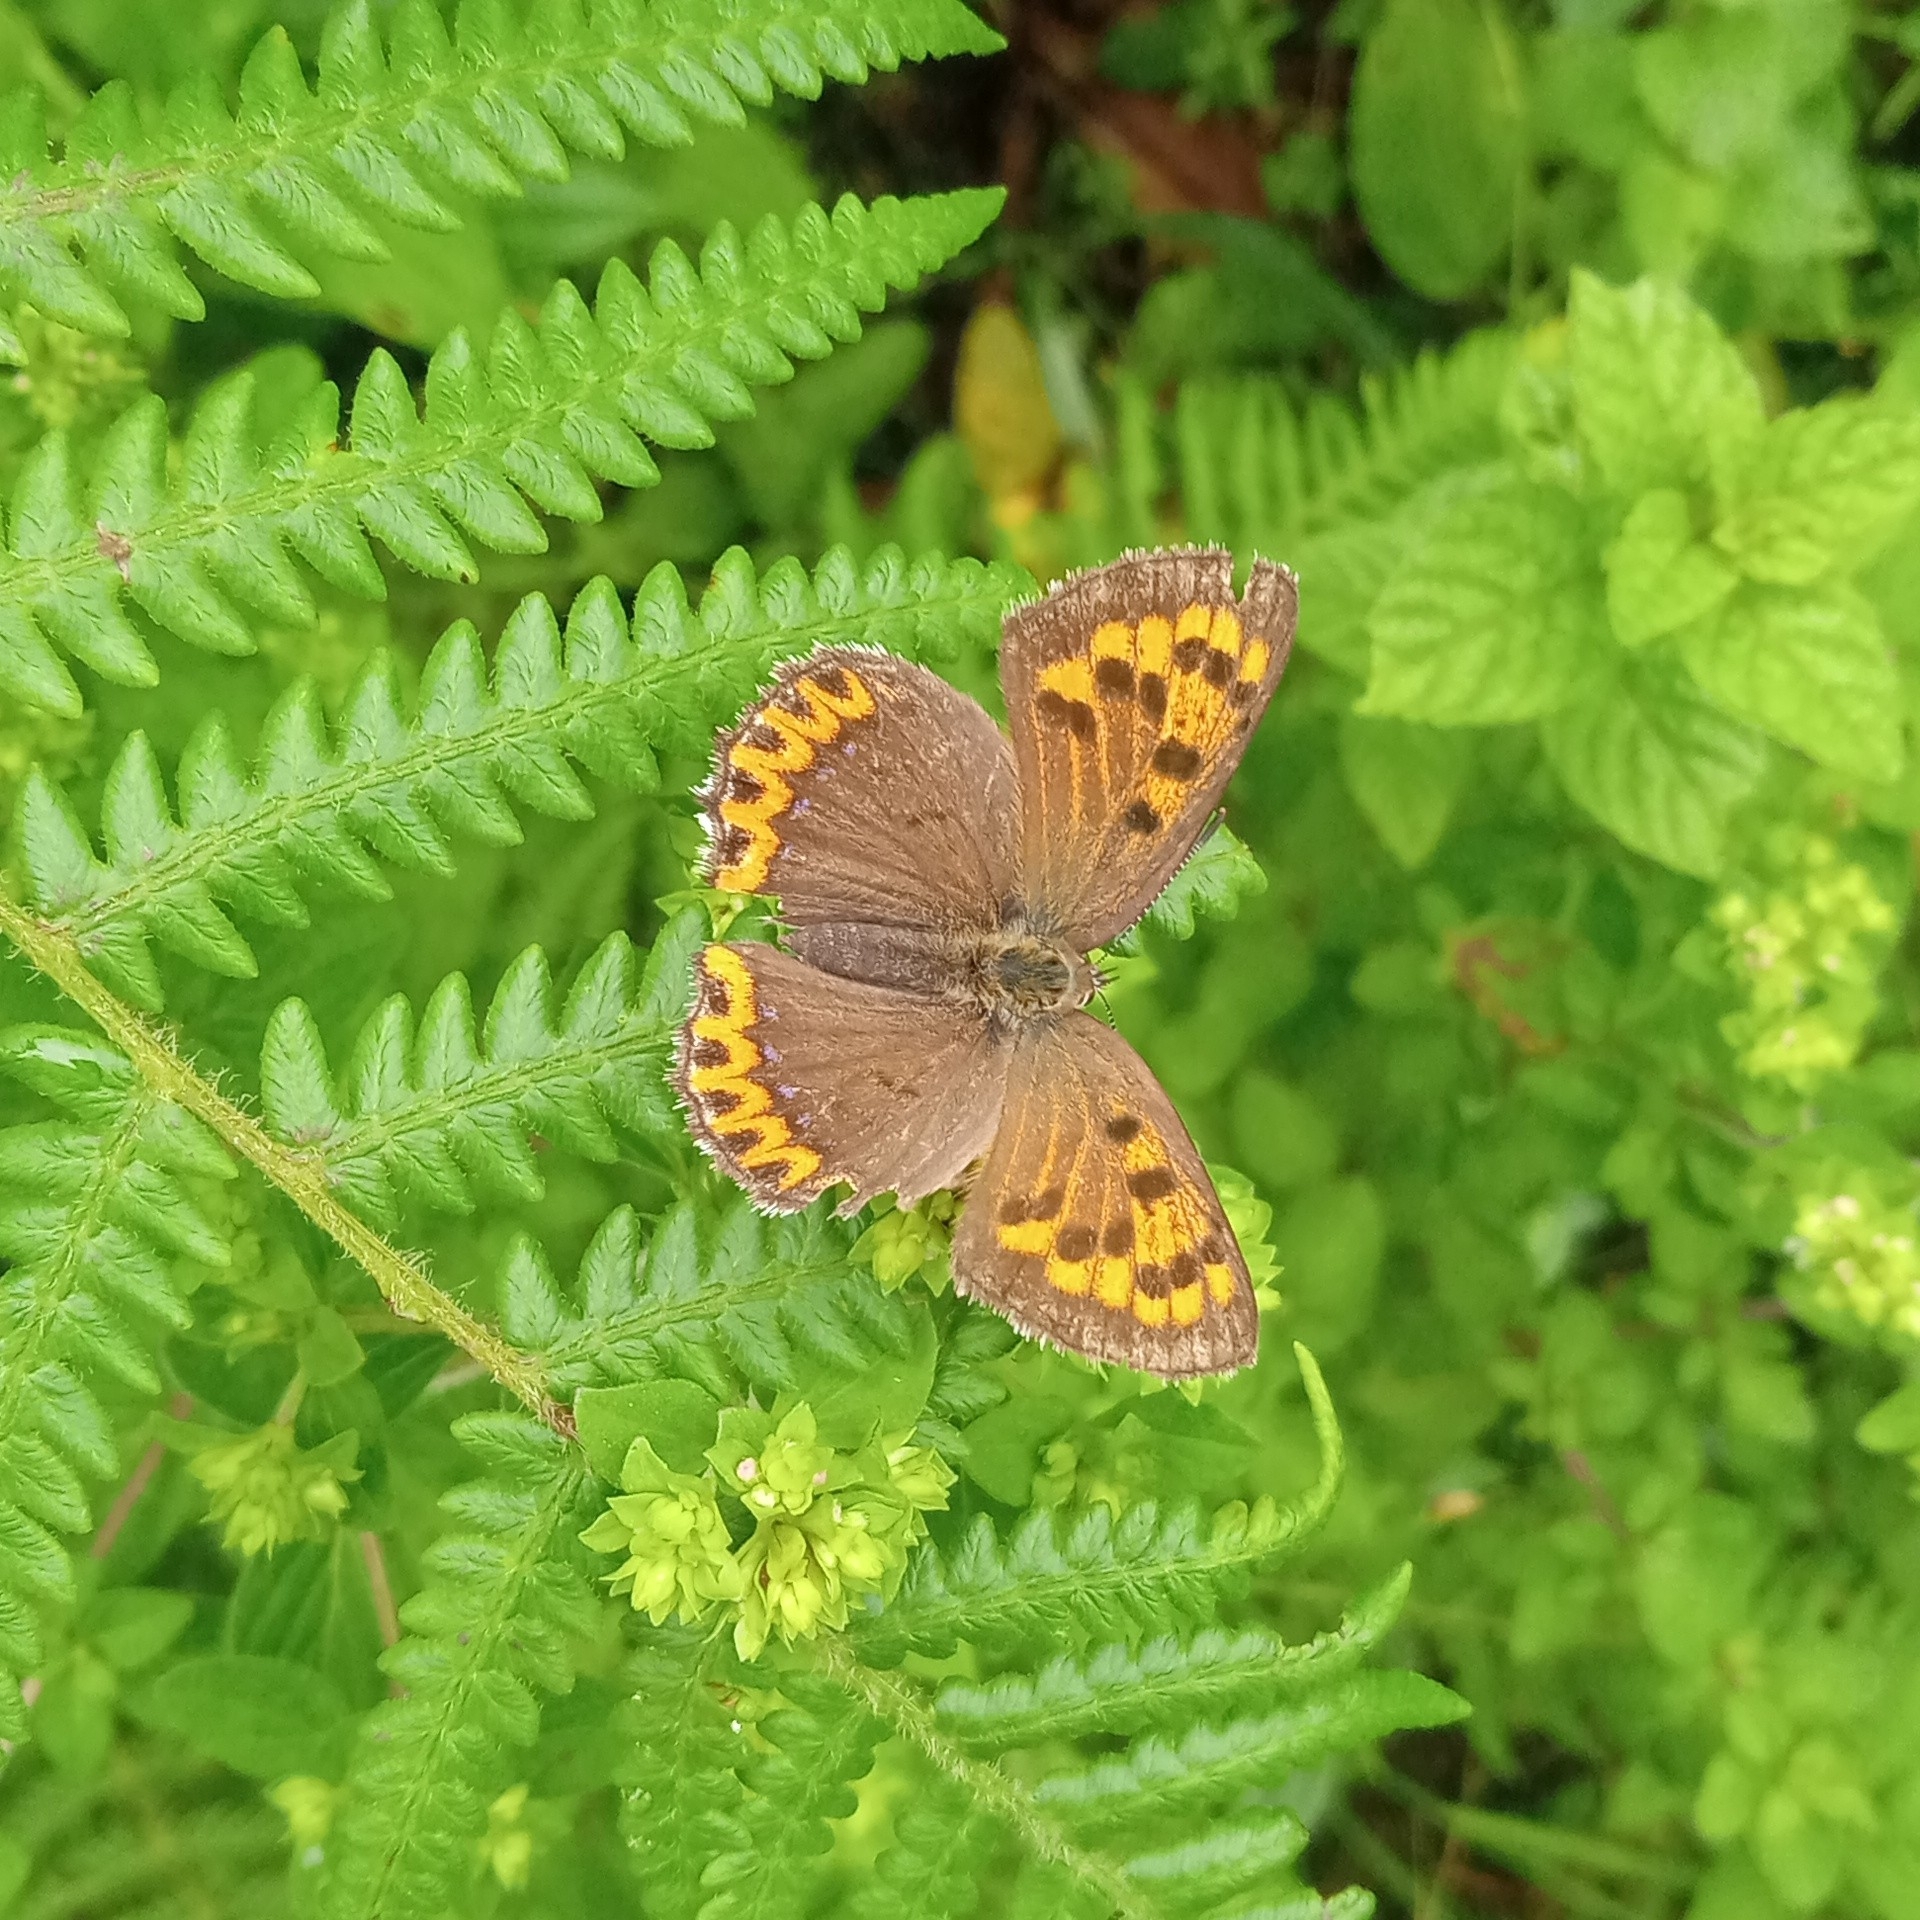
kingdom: Animalia
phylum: Arthropoda
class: Insecta
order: Lepidoptera
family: Lycaenidae
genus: Lycaena
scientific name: Lycaena panava
